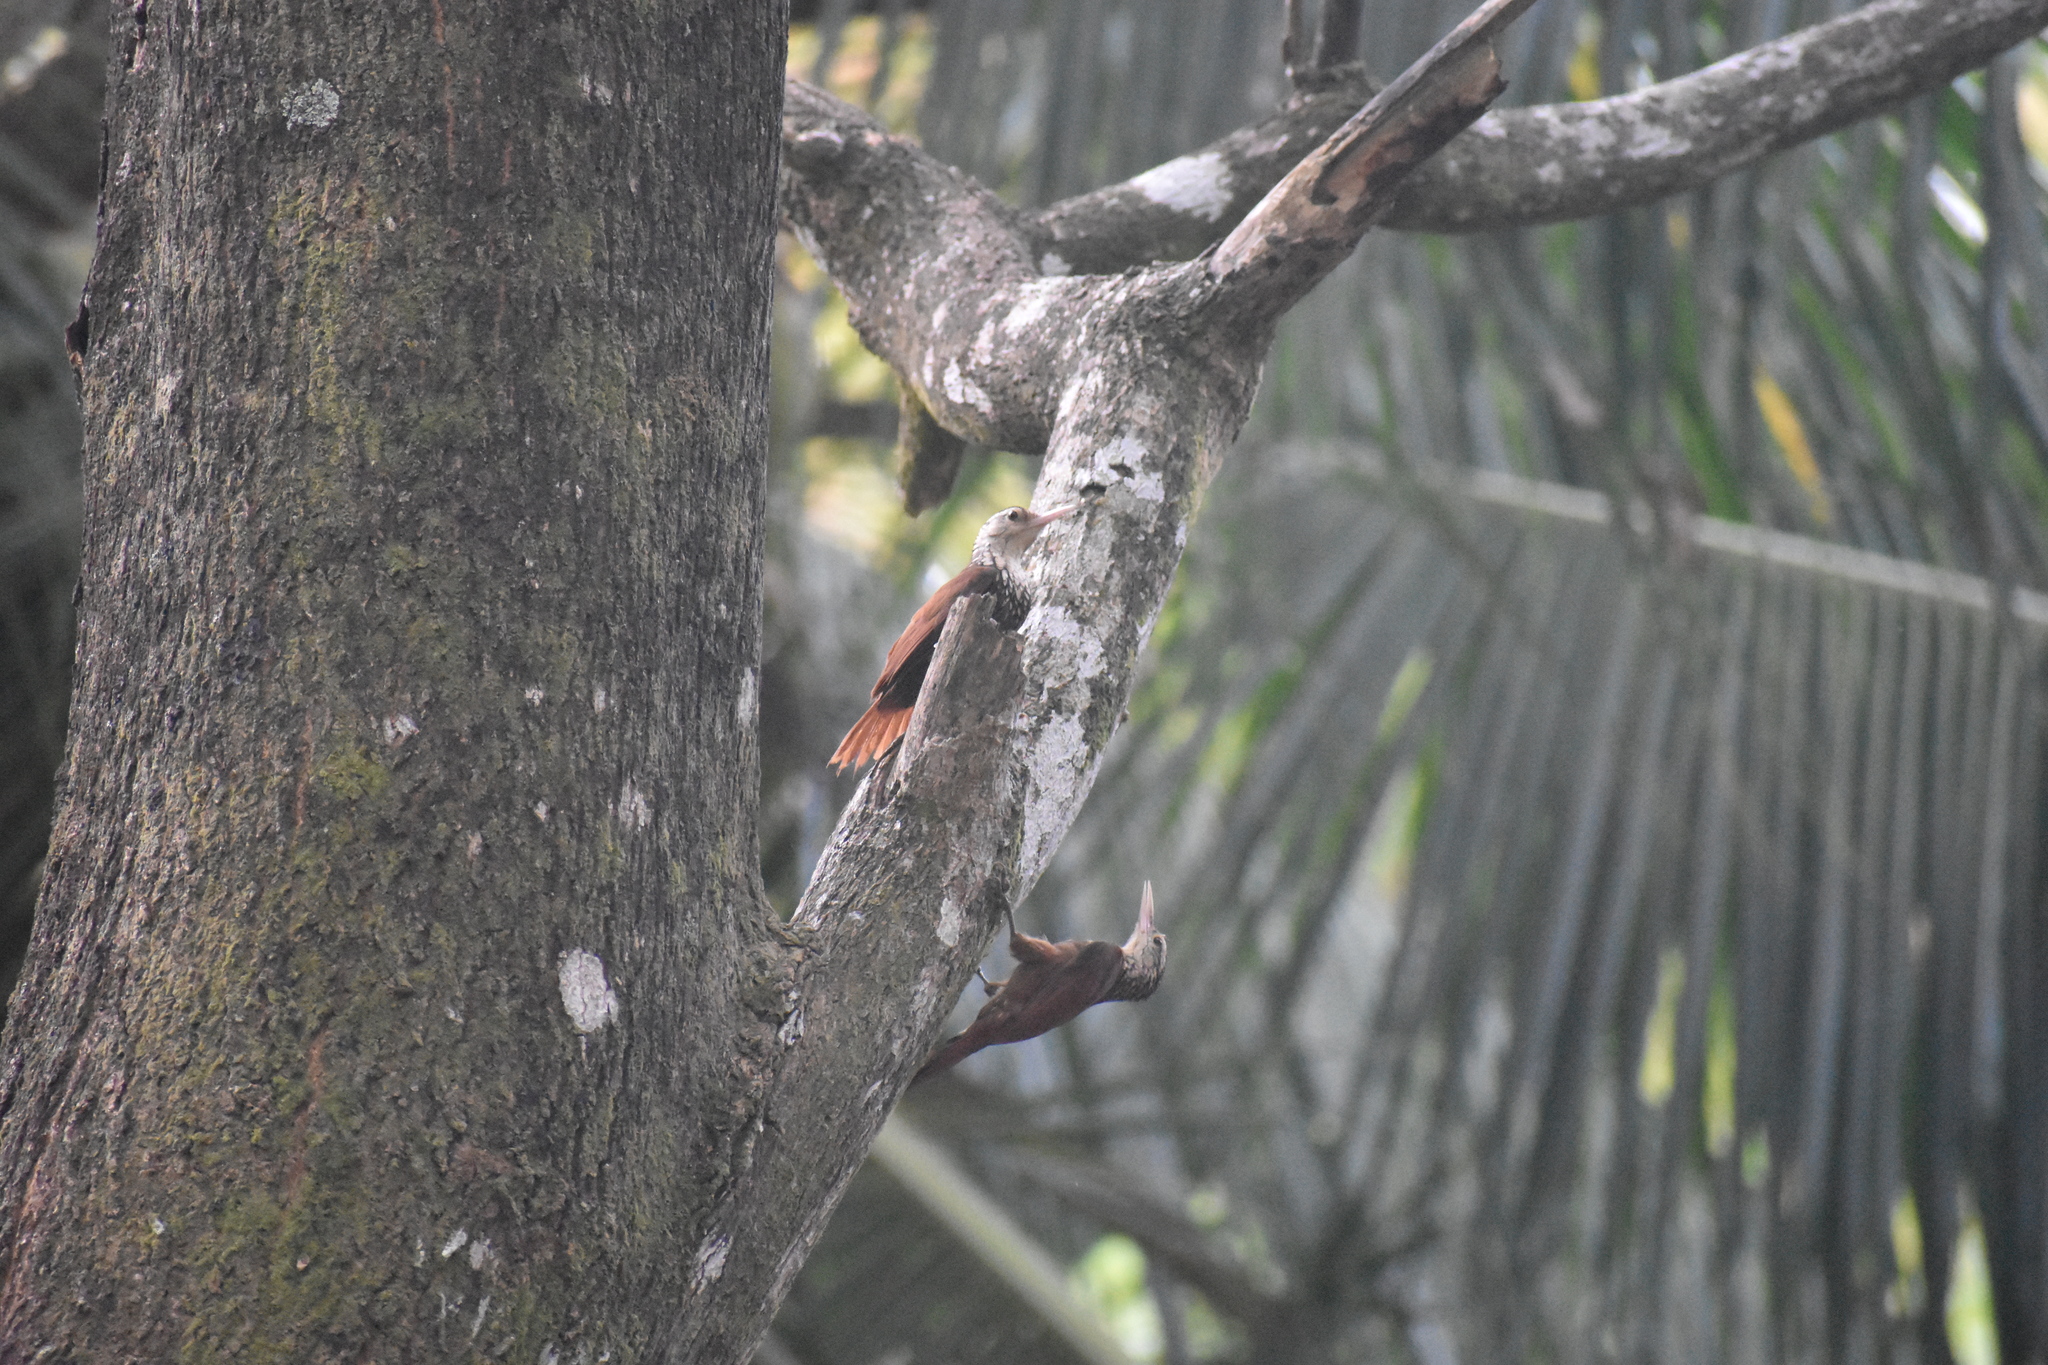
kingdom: Animalia
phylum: Chordata
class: Aves
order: Passeriformes
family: Furnariidae
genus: Xiphorhynchus
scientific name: Xiphorhynchus picus
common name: Straight-billed woodcreeper
